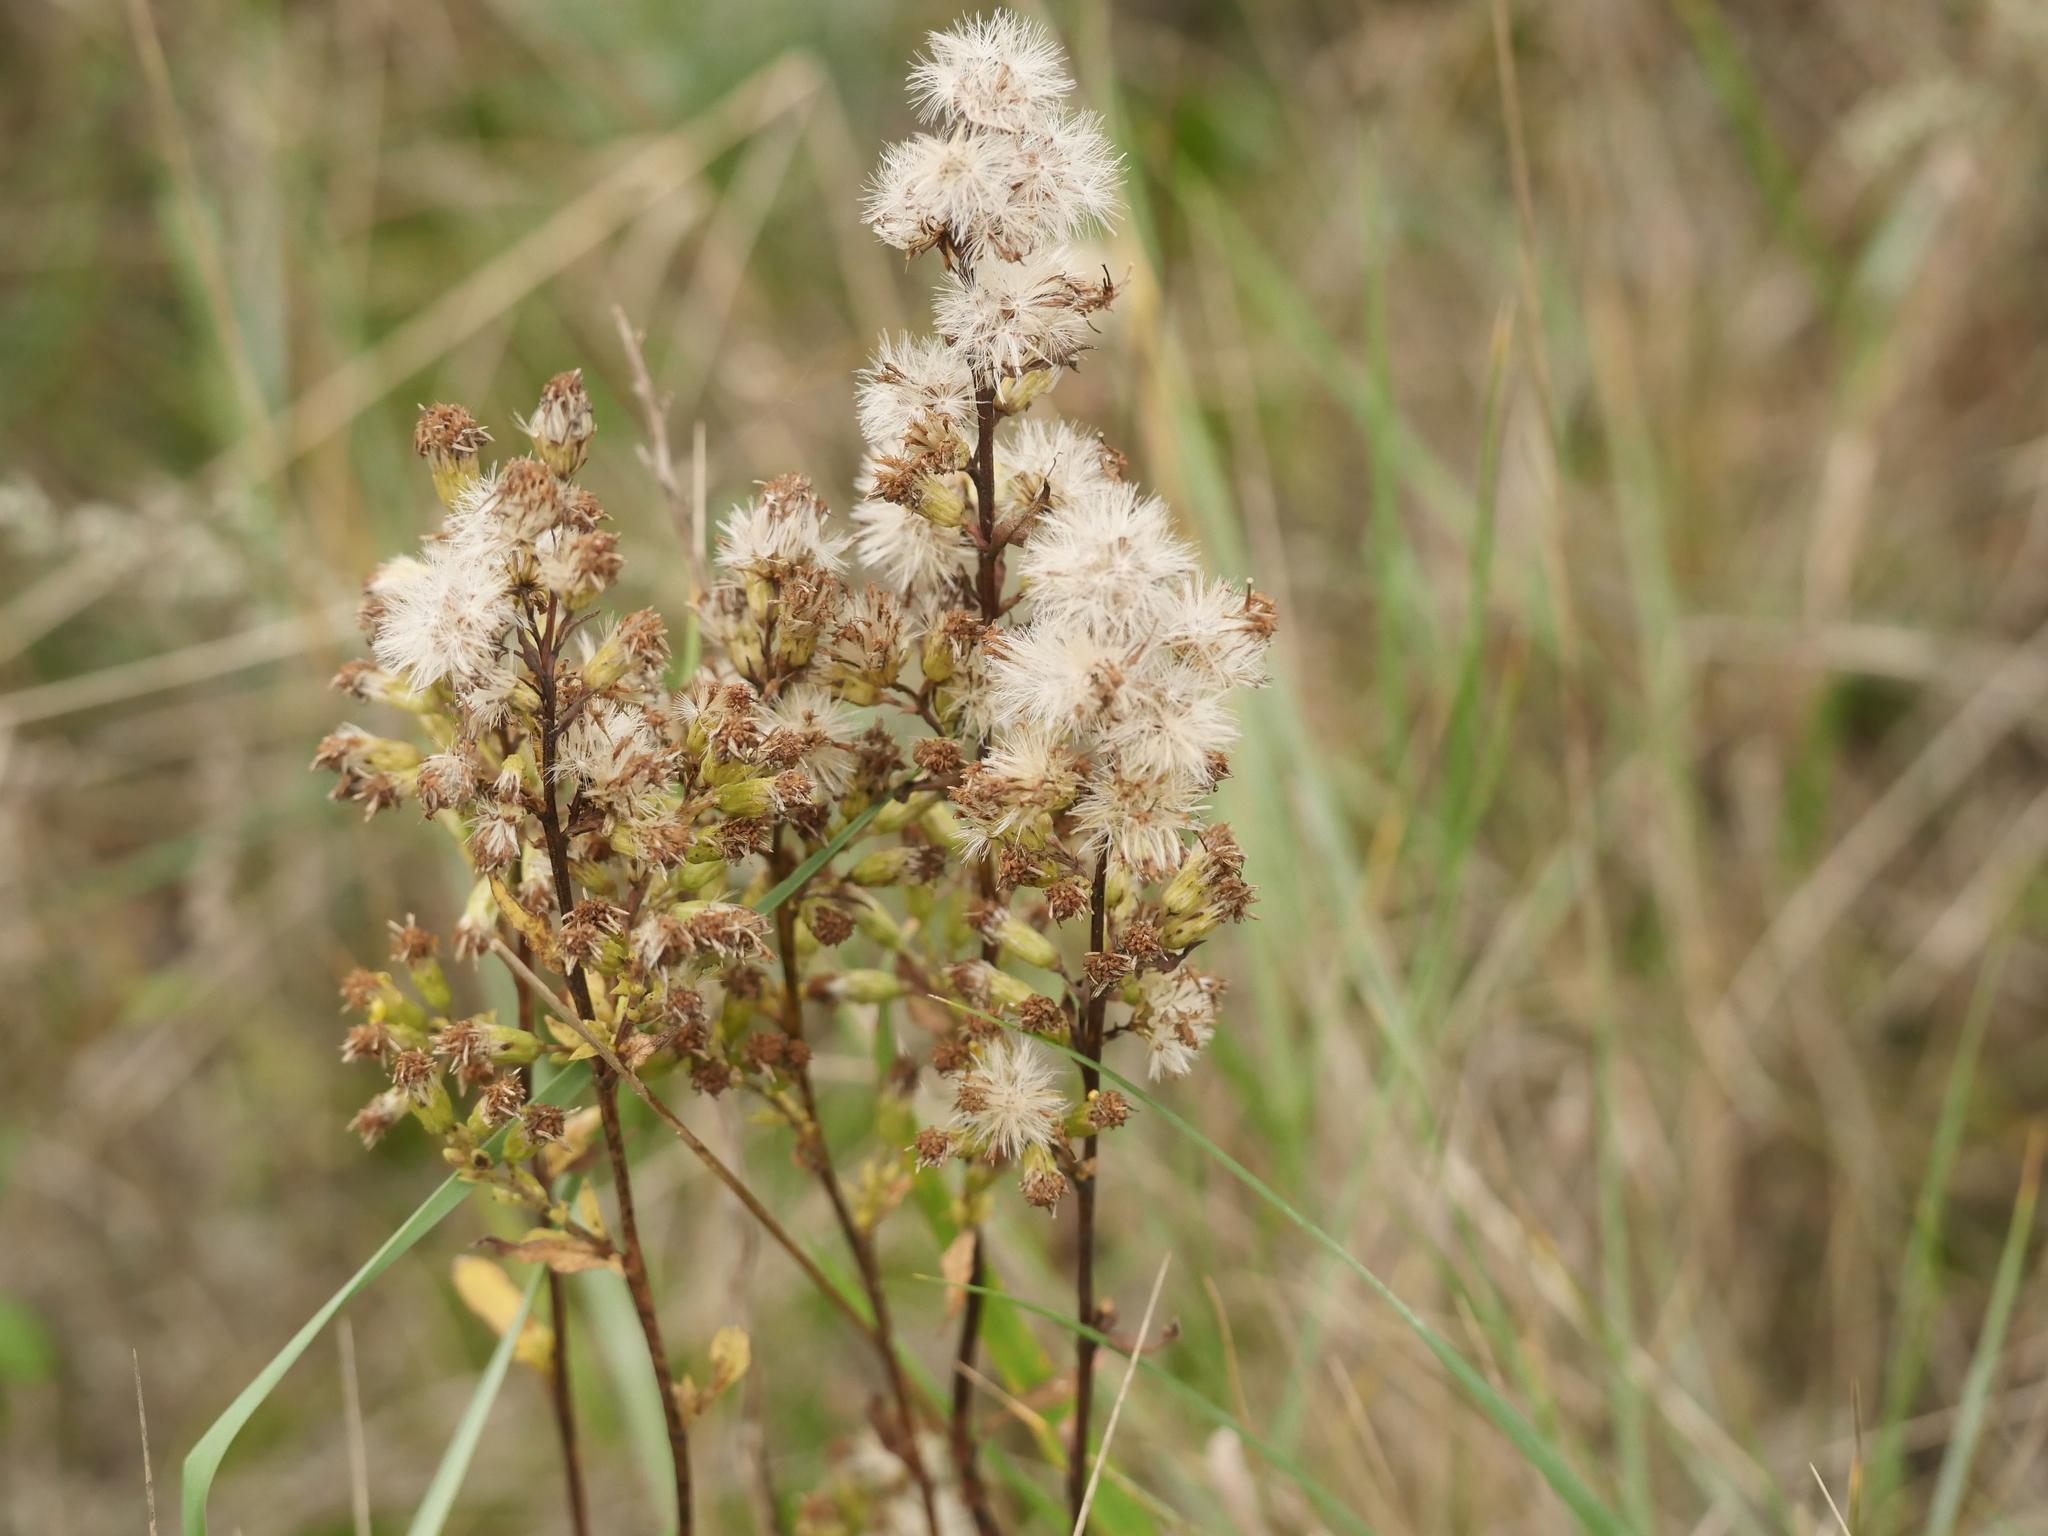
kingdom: Plantae
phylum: Tracheophyta
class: Magnoliopsida
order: Asterales
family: Asteraceae
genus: Solidago
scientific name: Solidago virgaurea
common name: Goldenrod
